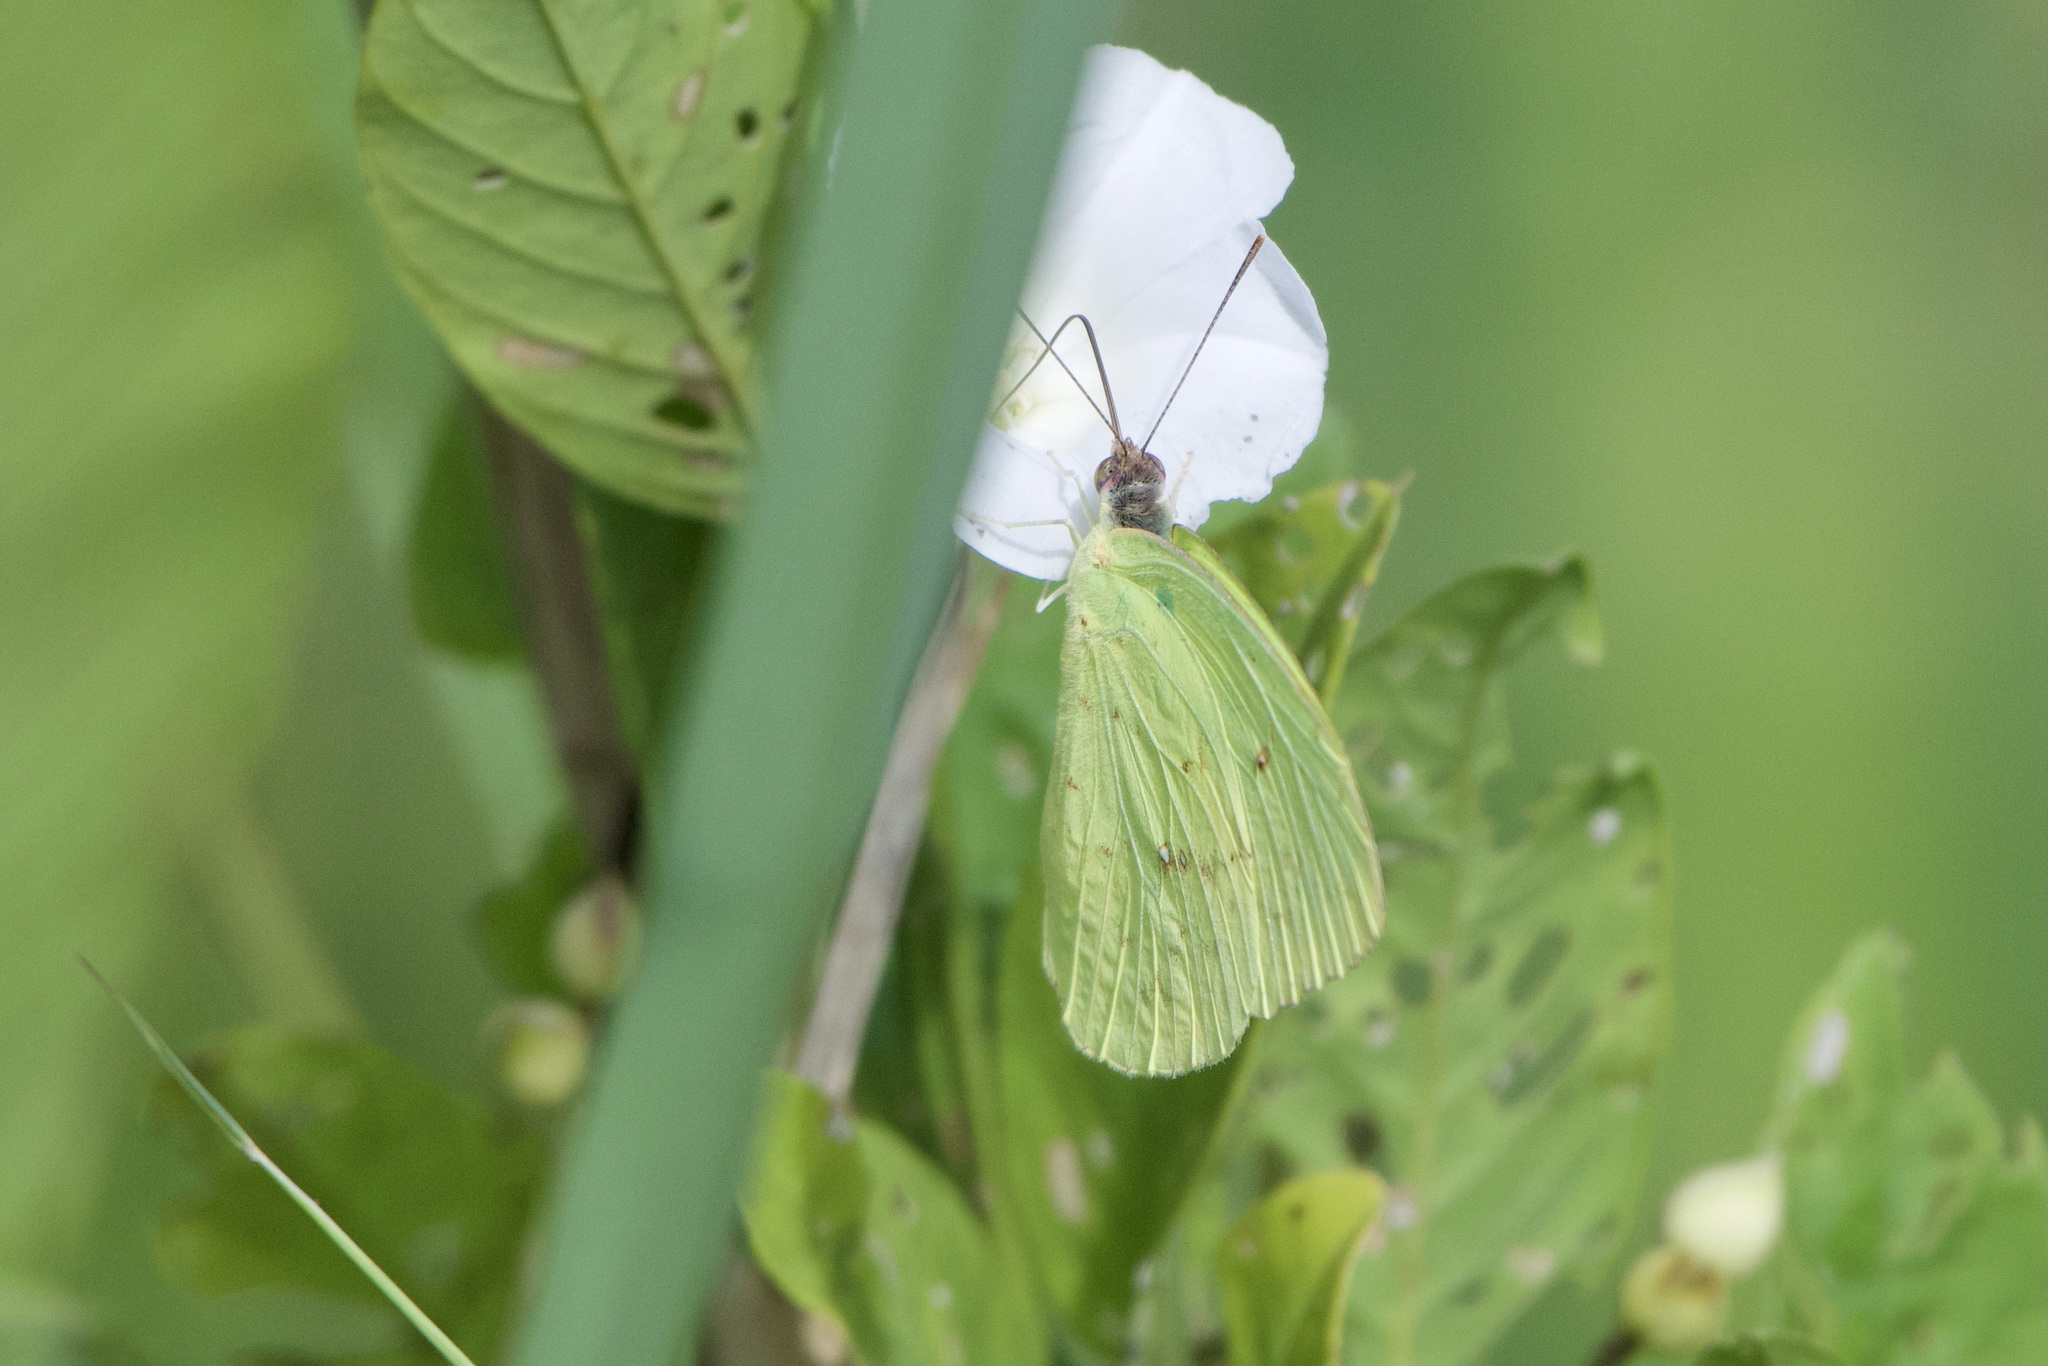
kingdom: Animalia
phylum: Arthropoda
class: Insecta
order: Lepidoptera
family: Pieridae
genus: Phoebis
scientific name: Phoebis sennae
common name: Cloudless sulphur
